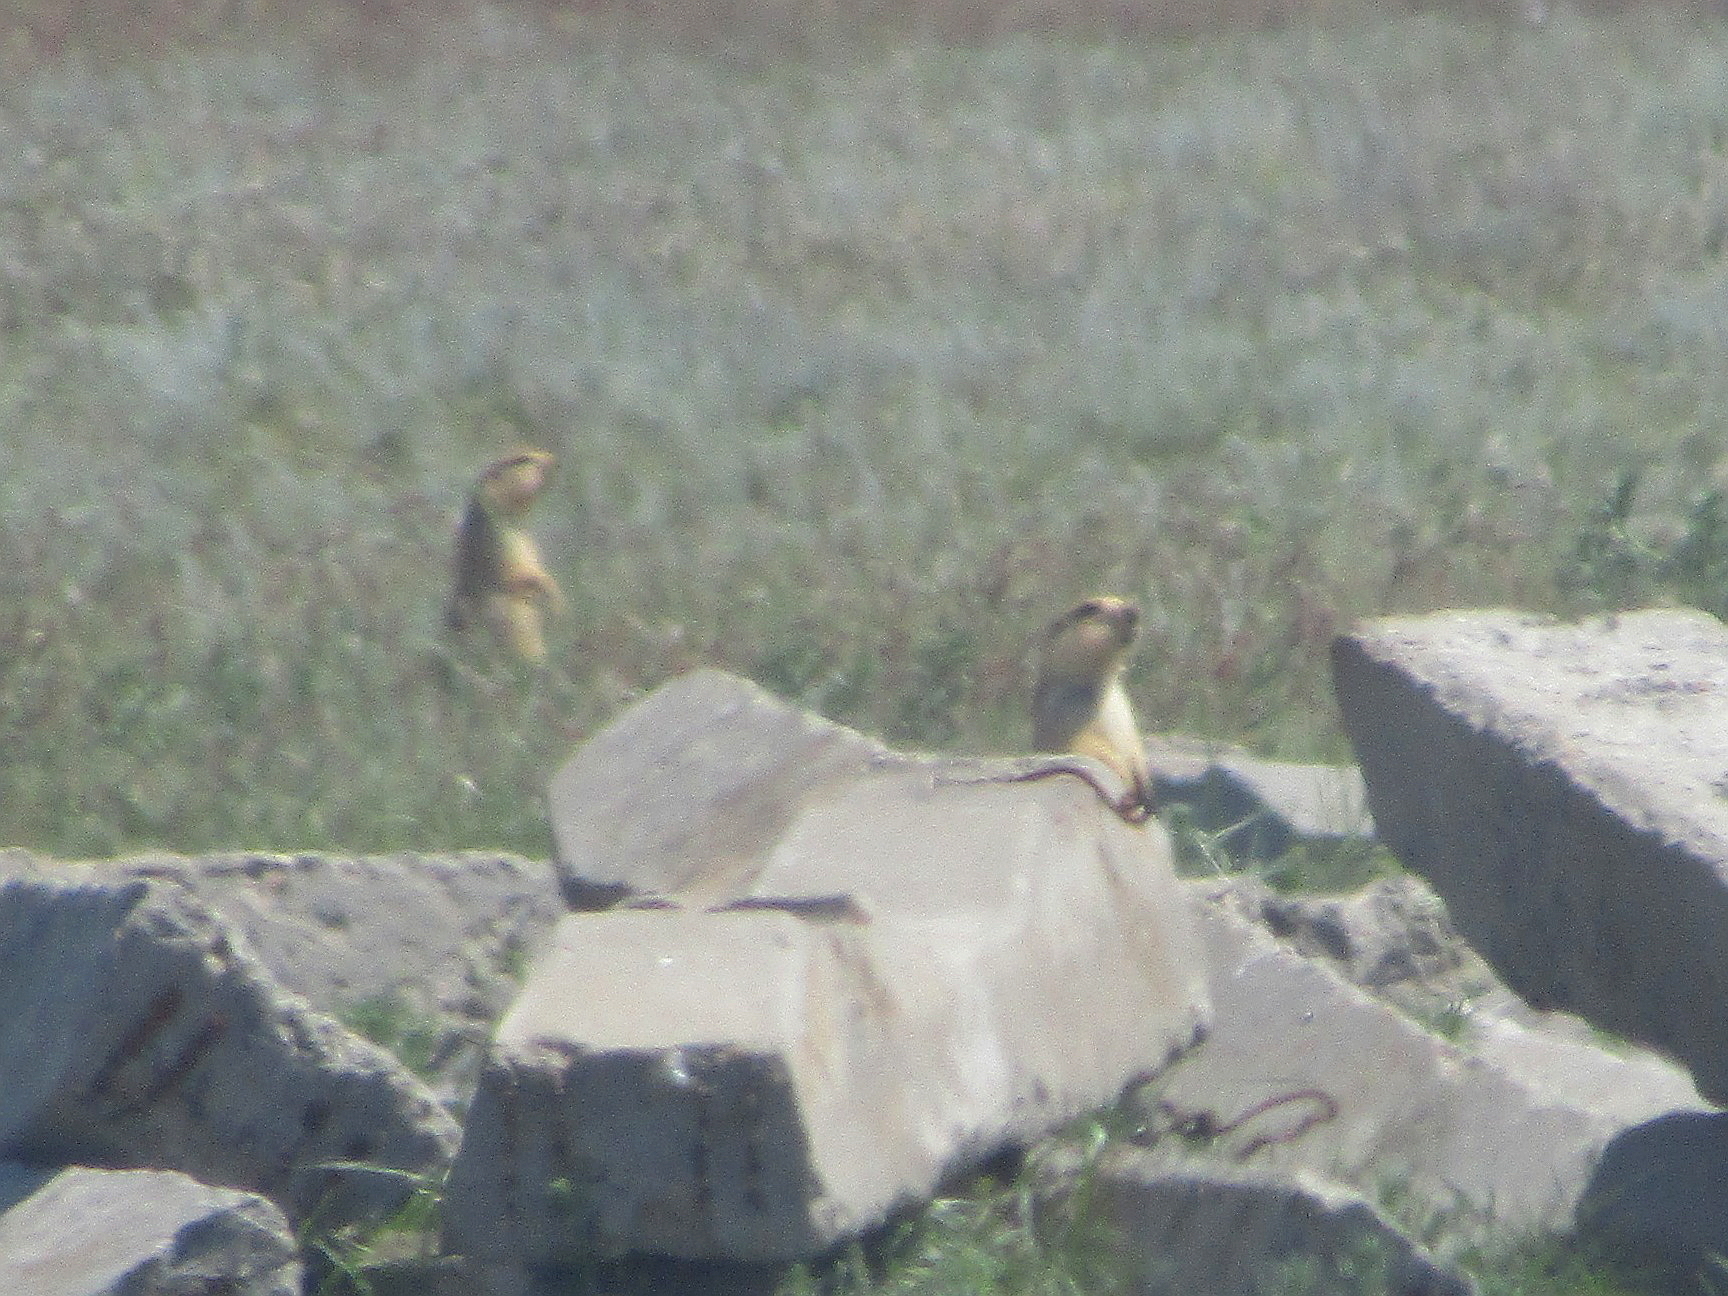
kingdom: Animalia
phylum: Chordata
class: Mammalia
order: Rodentia
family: Sciuridae
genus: Spermophilus
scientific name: Spermophilus fulvus
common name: Yellow ground squirrel
